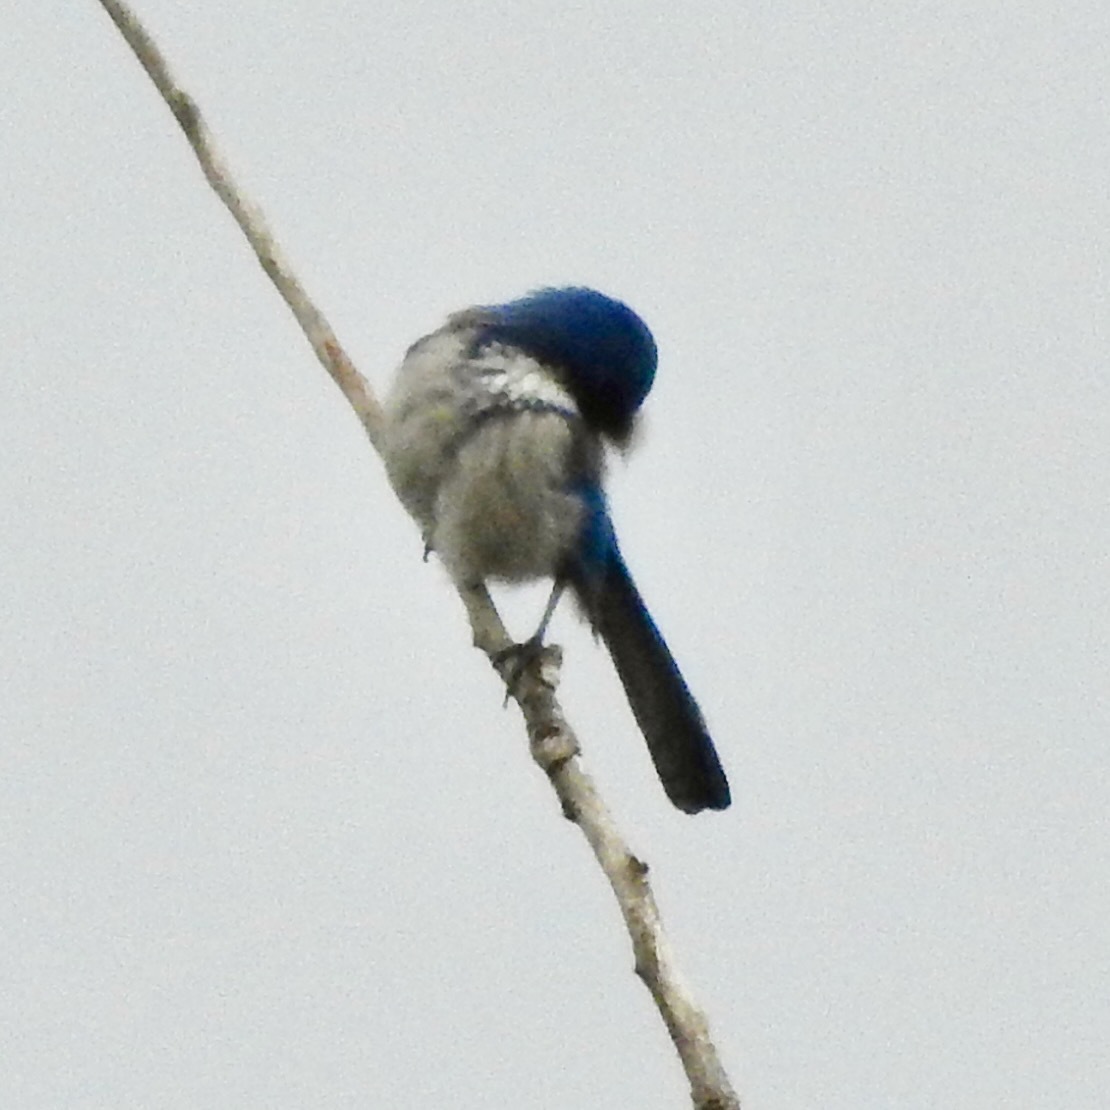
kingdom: Animalia
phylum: Chordata
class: Aves
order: Passeriformes
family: Corvidae
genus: Aphelocoma
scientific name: Aphelocoma californica
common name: California scrub-jay
